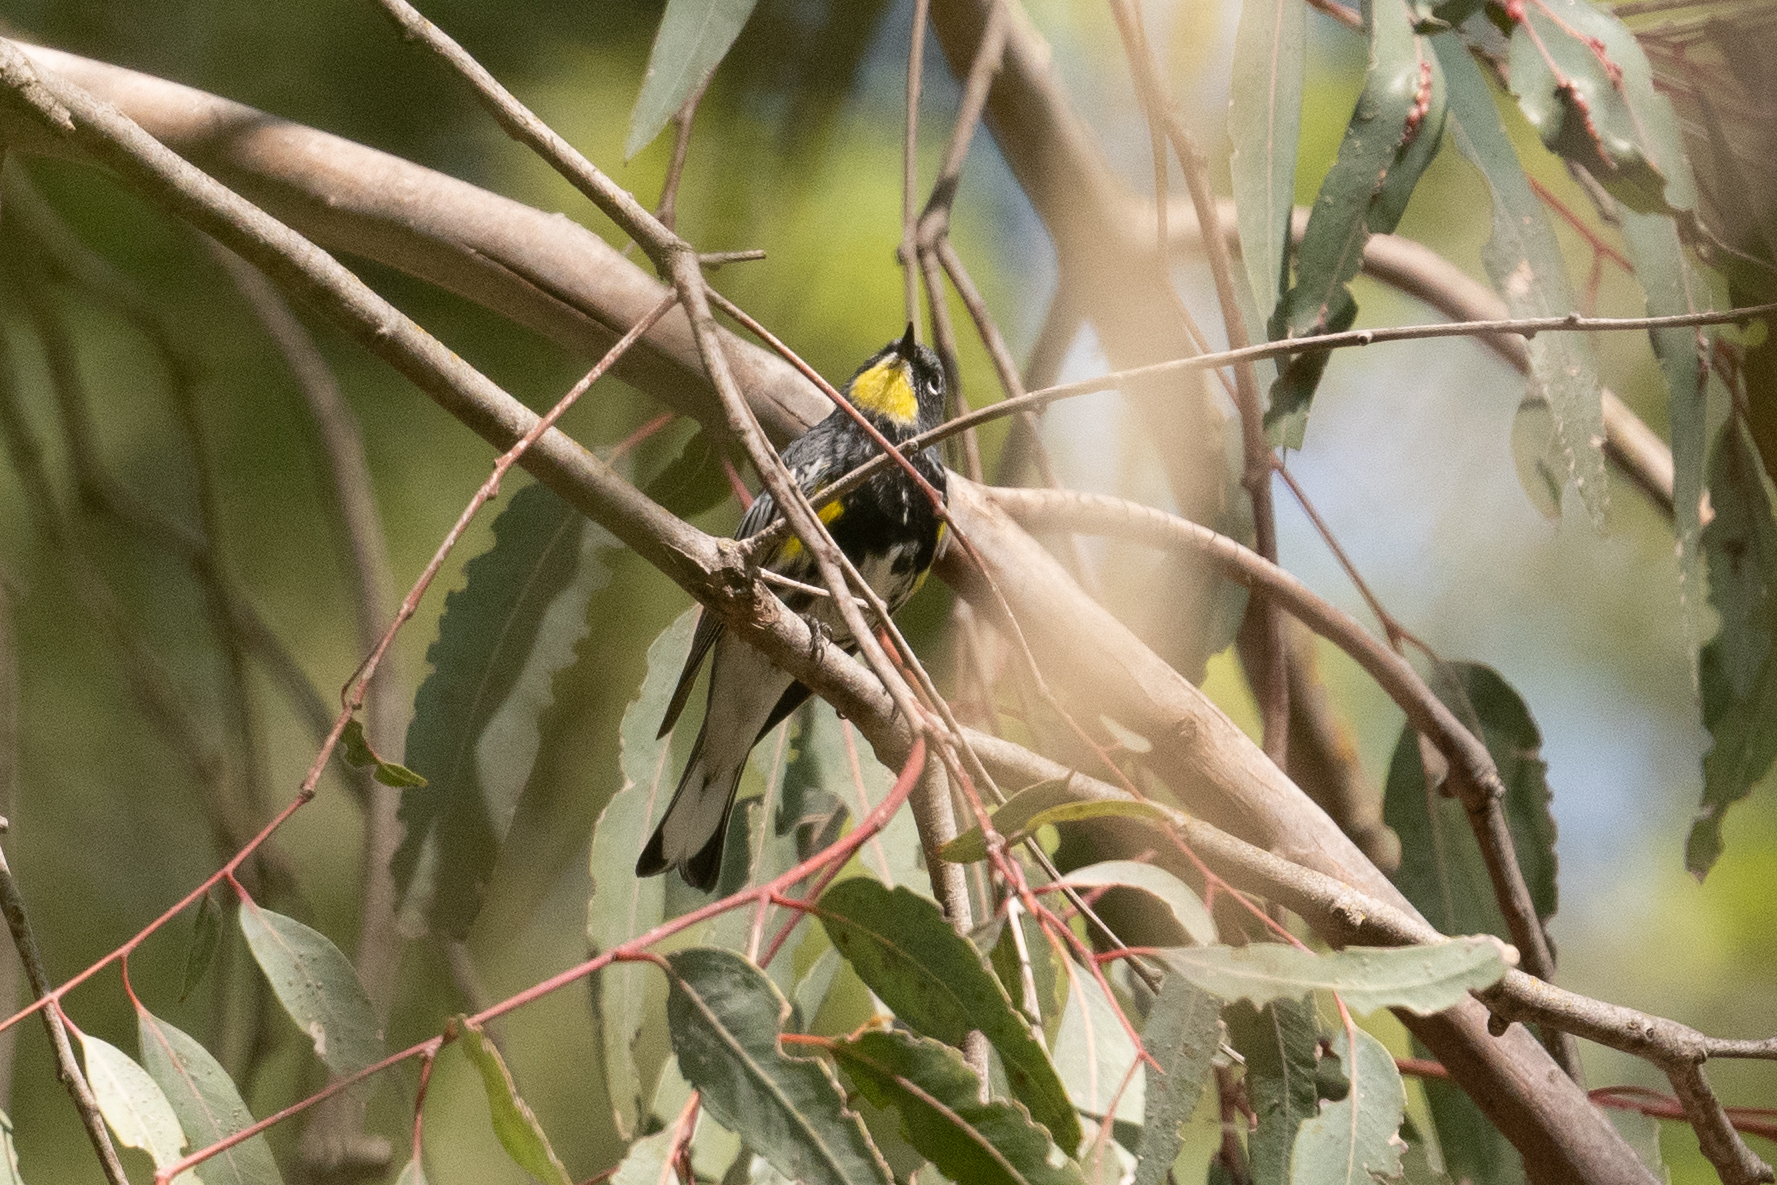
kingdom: Animalia
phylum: Chordata
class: Aves
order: Passeriformes
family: Parulidae
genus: Setophaga
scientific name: Setophaga coronata
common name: Myrtle warbler
